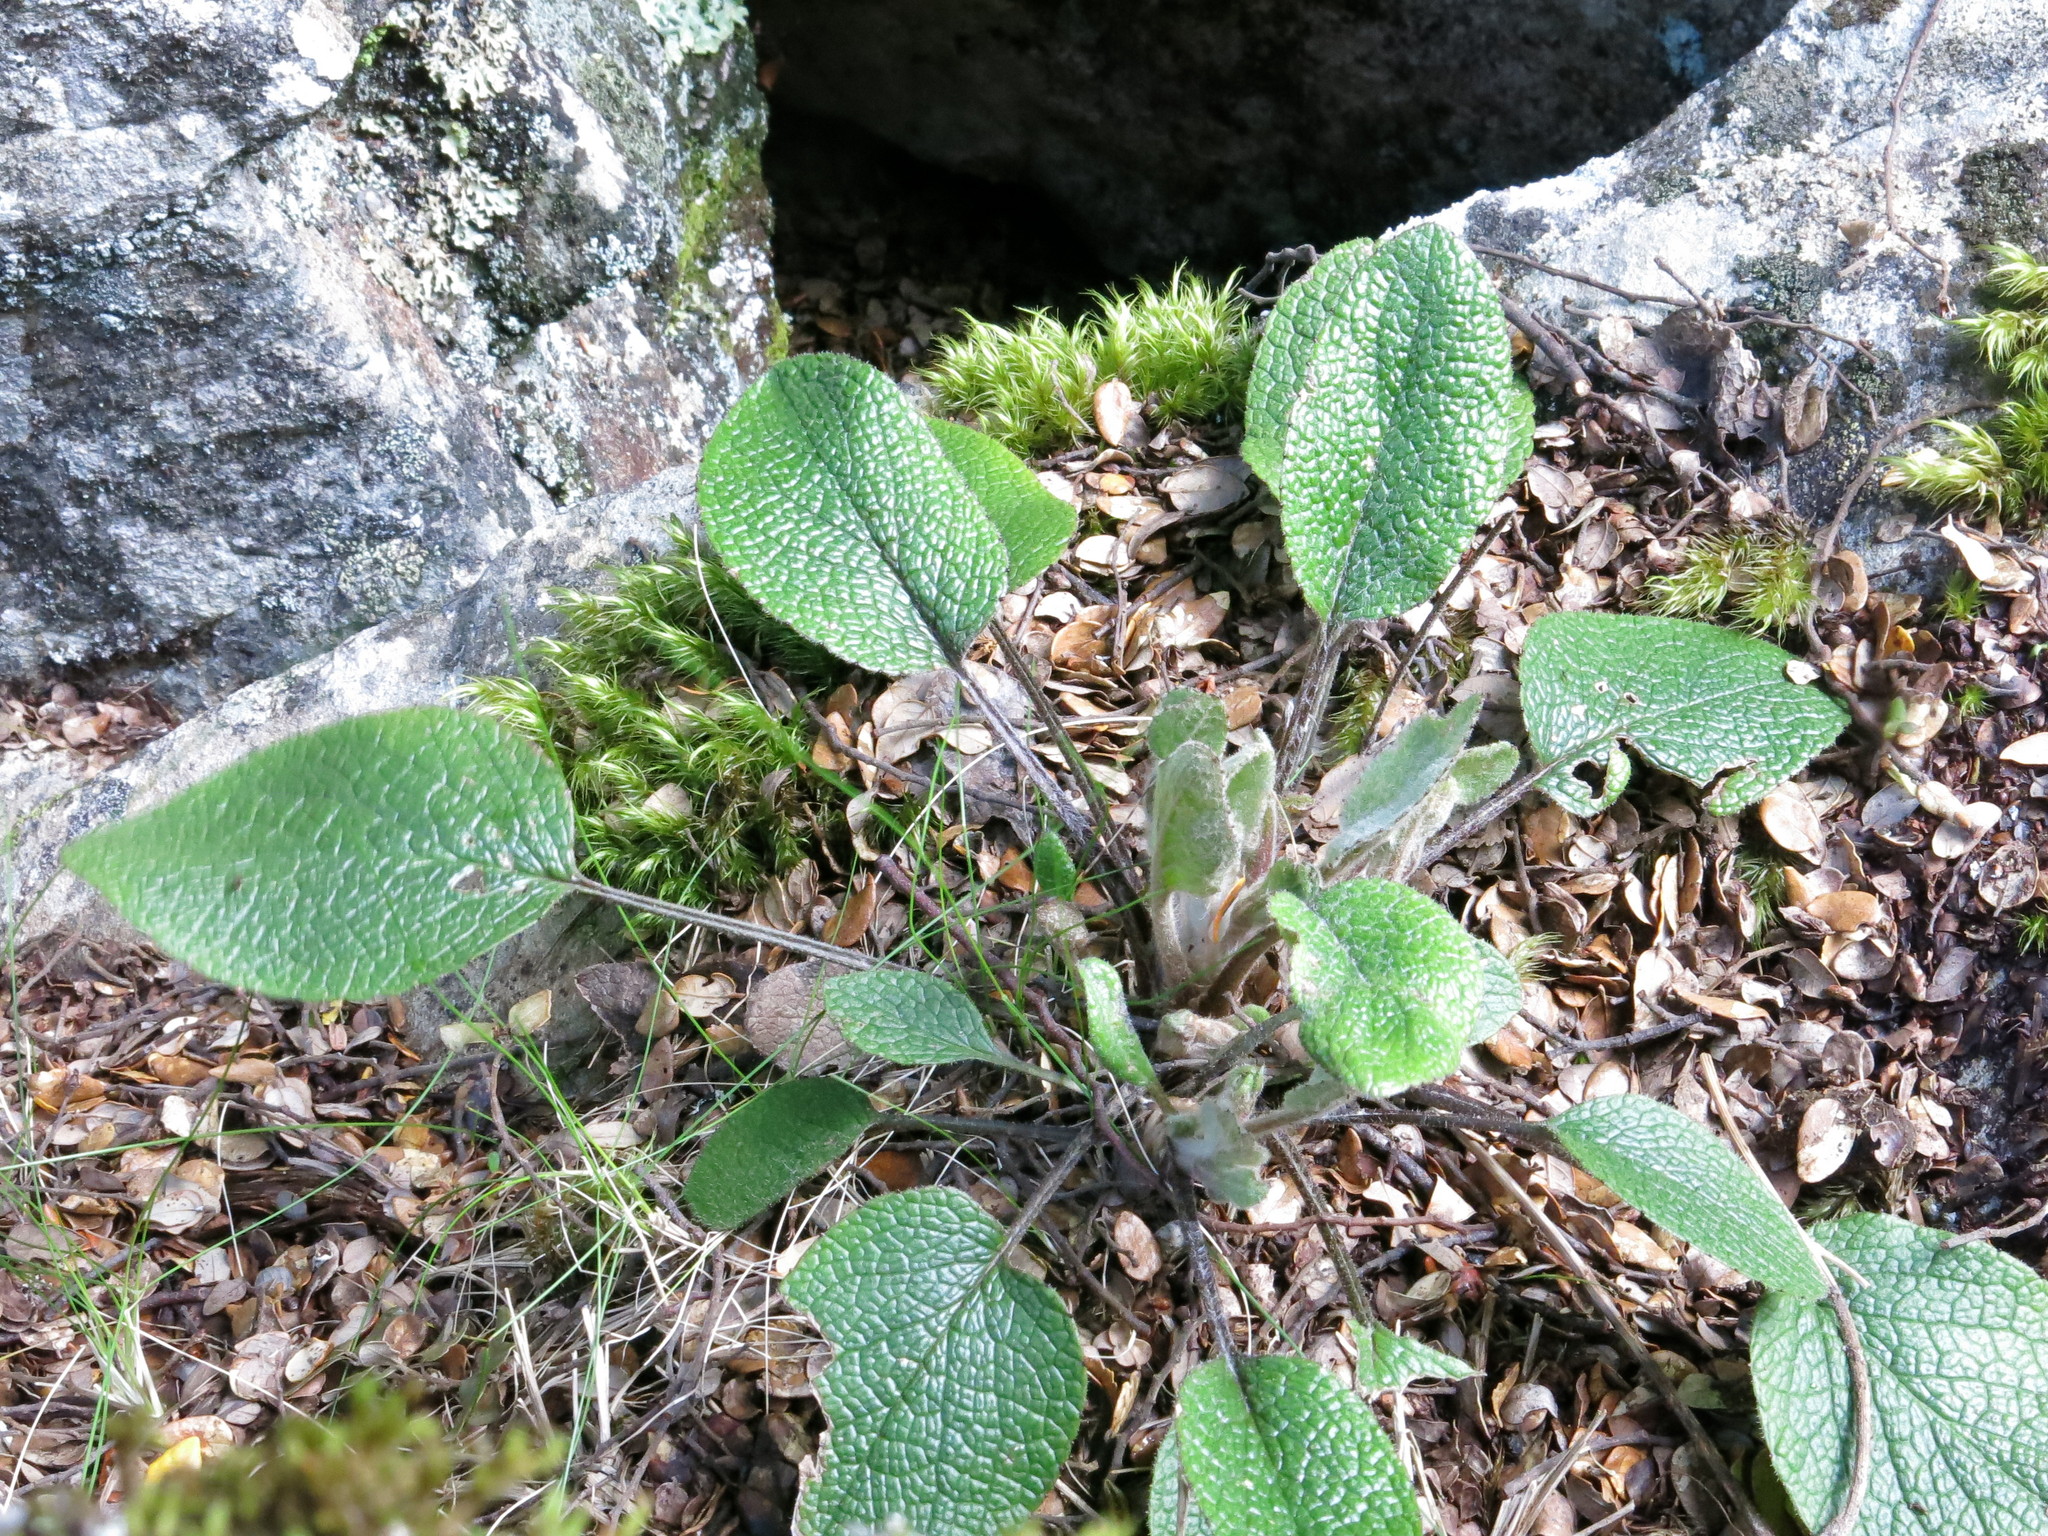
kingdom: Plantae
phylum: Tracheophyta
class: Magnoliopsida
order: Asterales
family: Asteraceae
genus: Brachyglottis
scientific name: Brachyglottis southlandica
